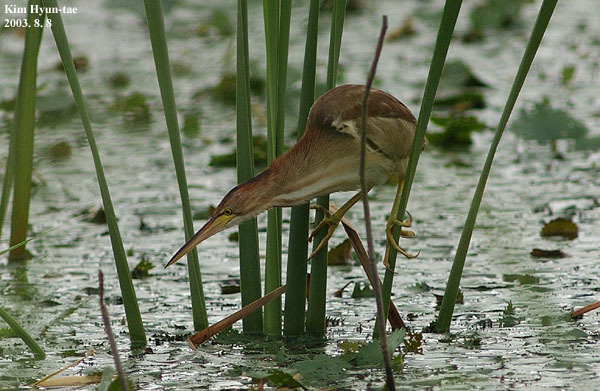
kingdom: Animalia
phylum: Chordata
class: Aves
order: Pelecaniformes
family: Ardeidae
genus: Ixobrychus
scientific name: Ixobrychus sinensis
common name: Yellow bittern
